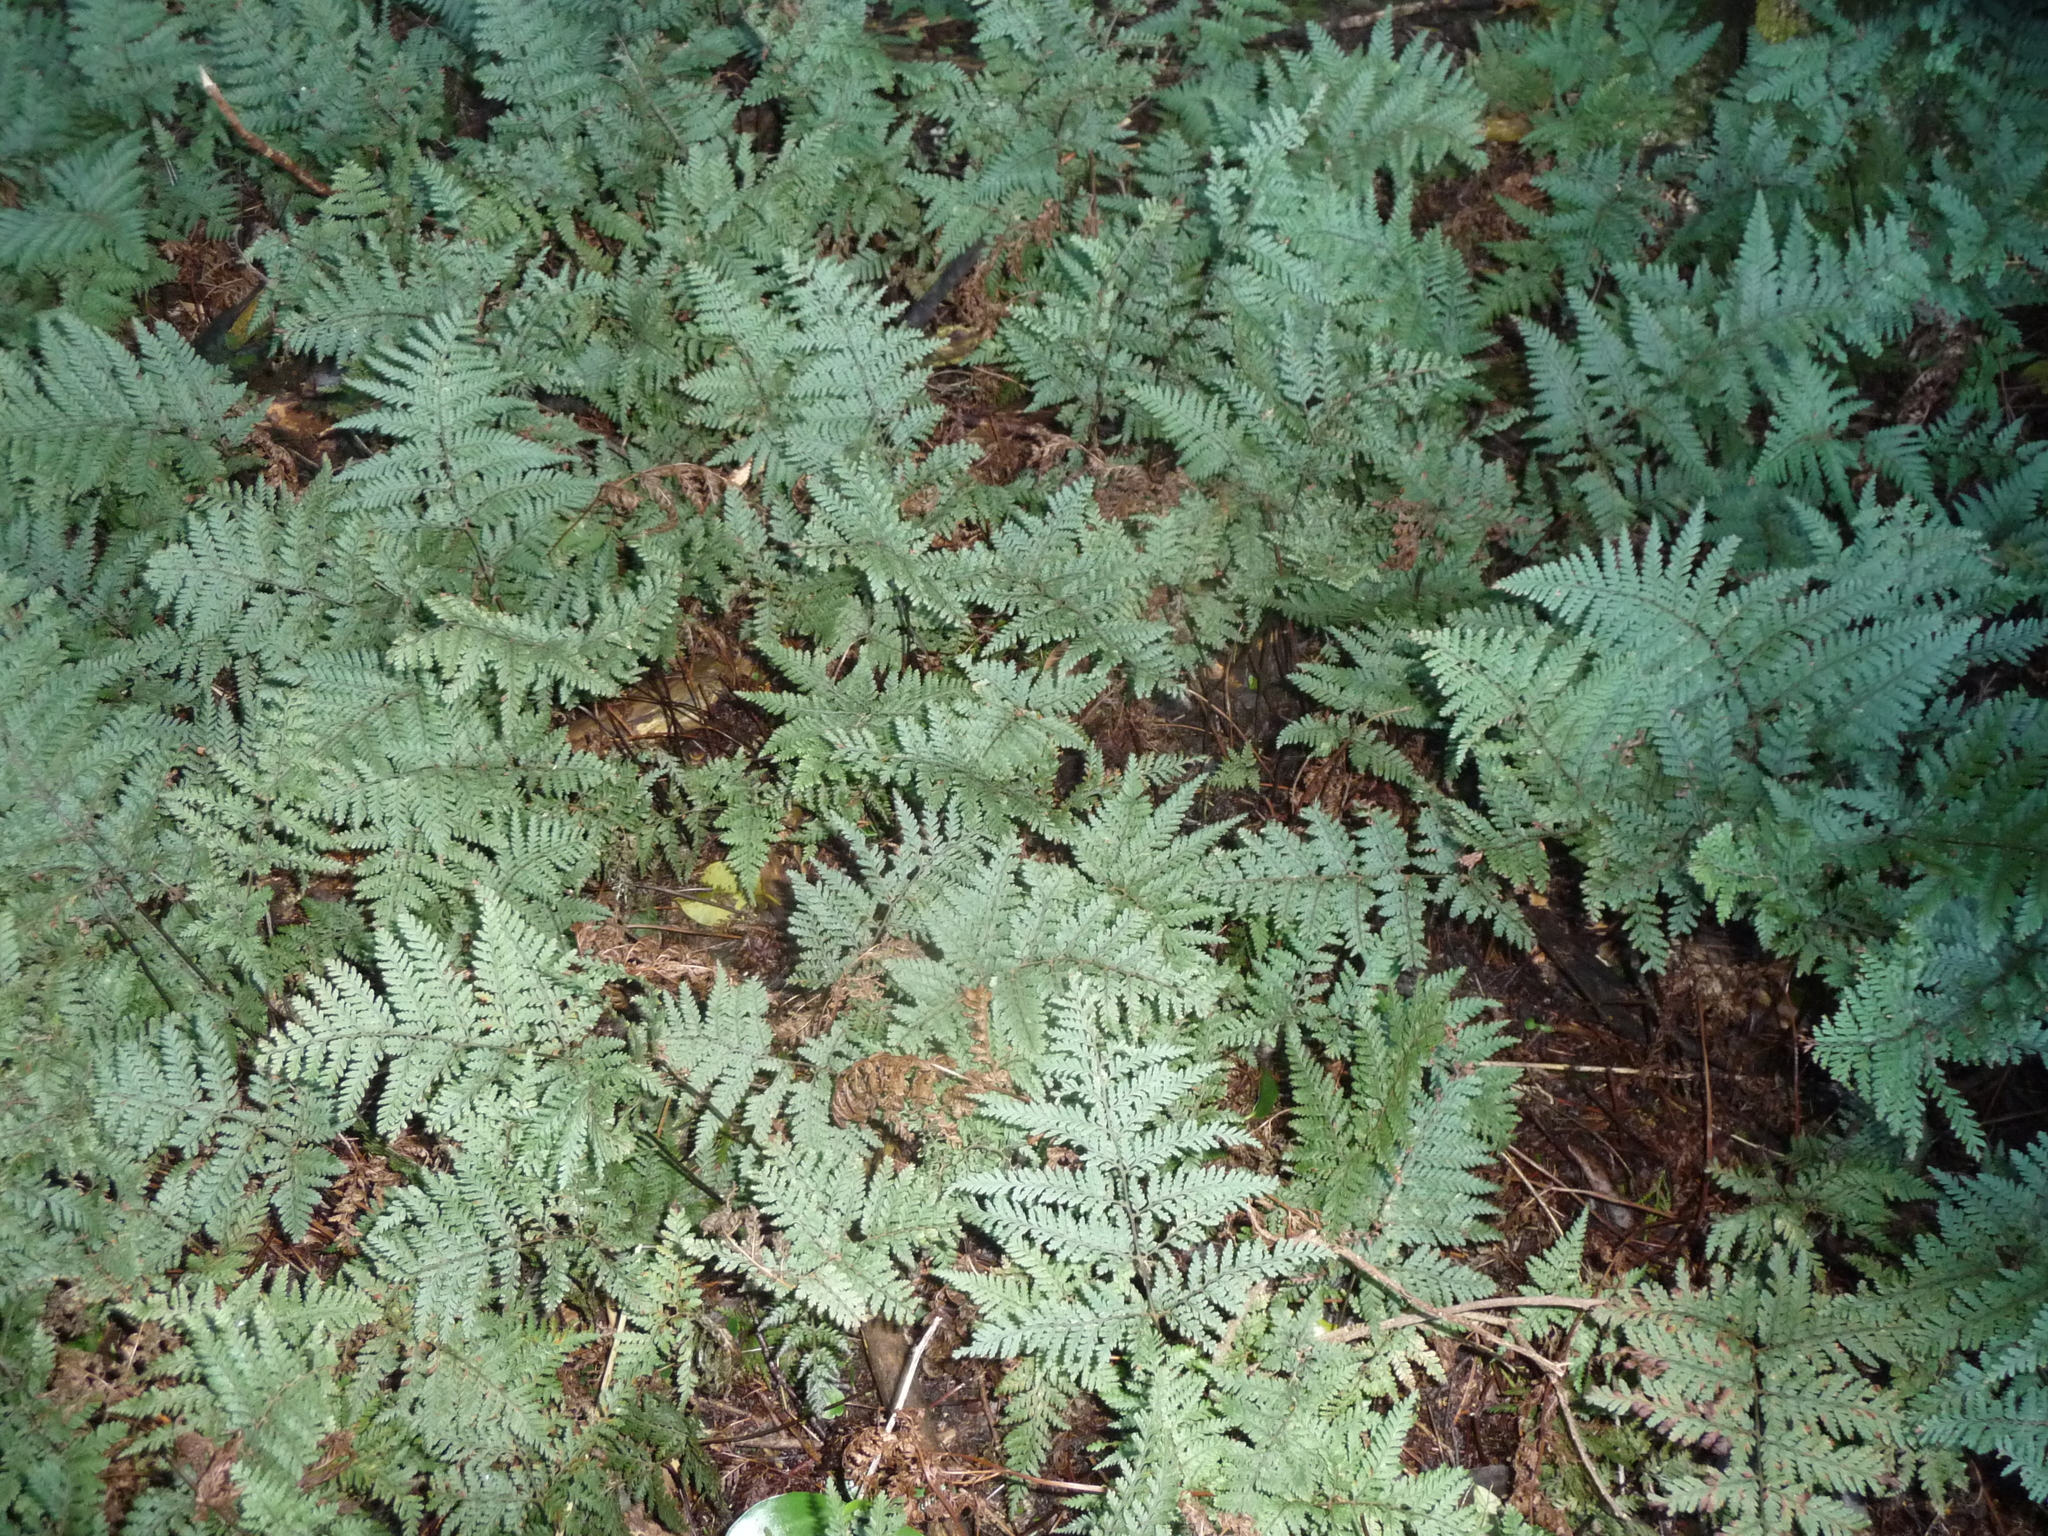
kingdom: Plantae
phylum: Tracheophyta
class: Polypodiopsida
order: Polypodiales
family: Dryopteridaceae
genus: Parapolystichum
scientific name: Parapolystichum microsorum
